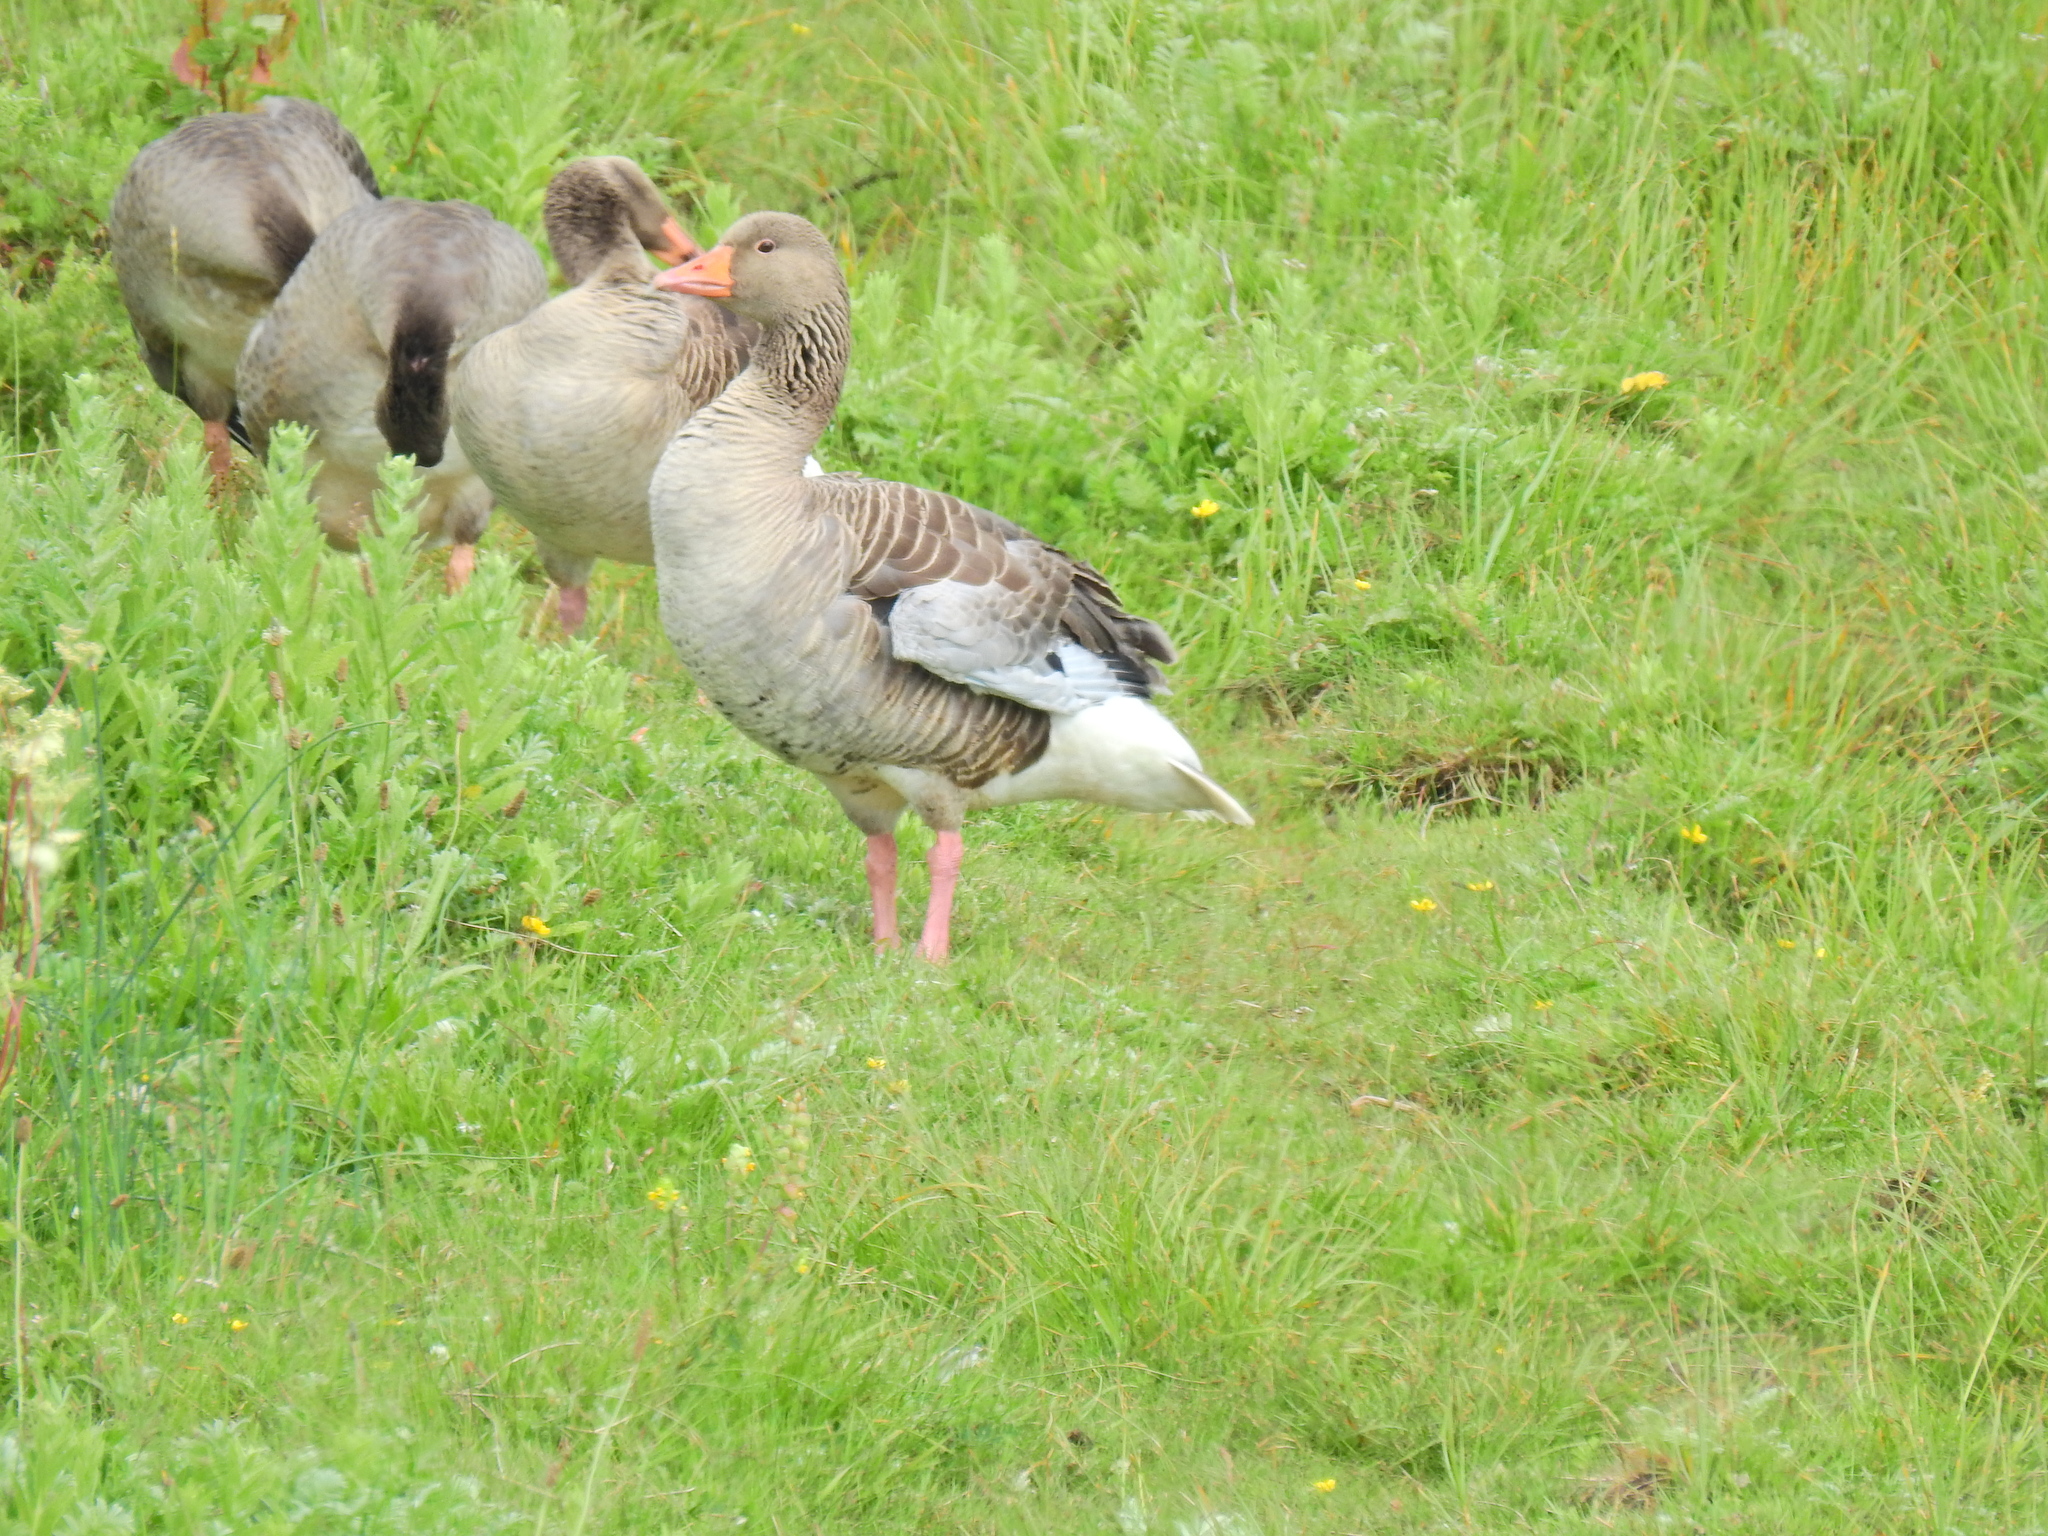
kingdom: Animalia
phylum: Chordata
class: Aves
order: Anseriformes
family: Anatidae
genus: Anser
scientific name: Anser anser
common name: Greylag goose
